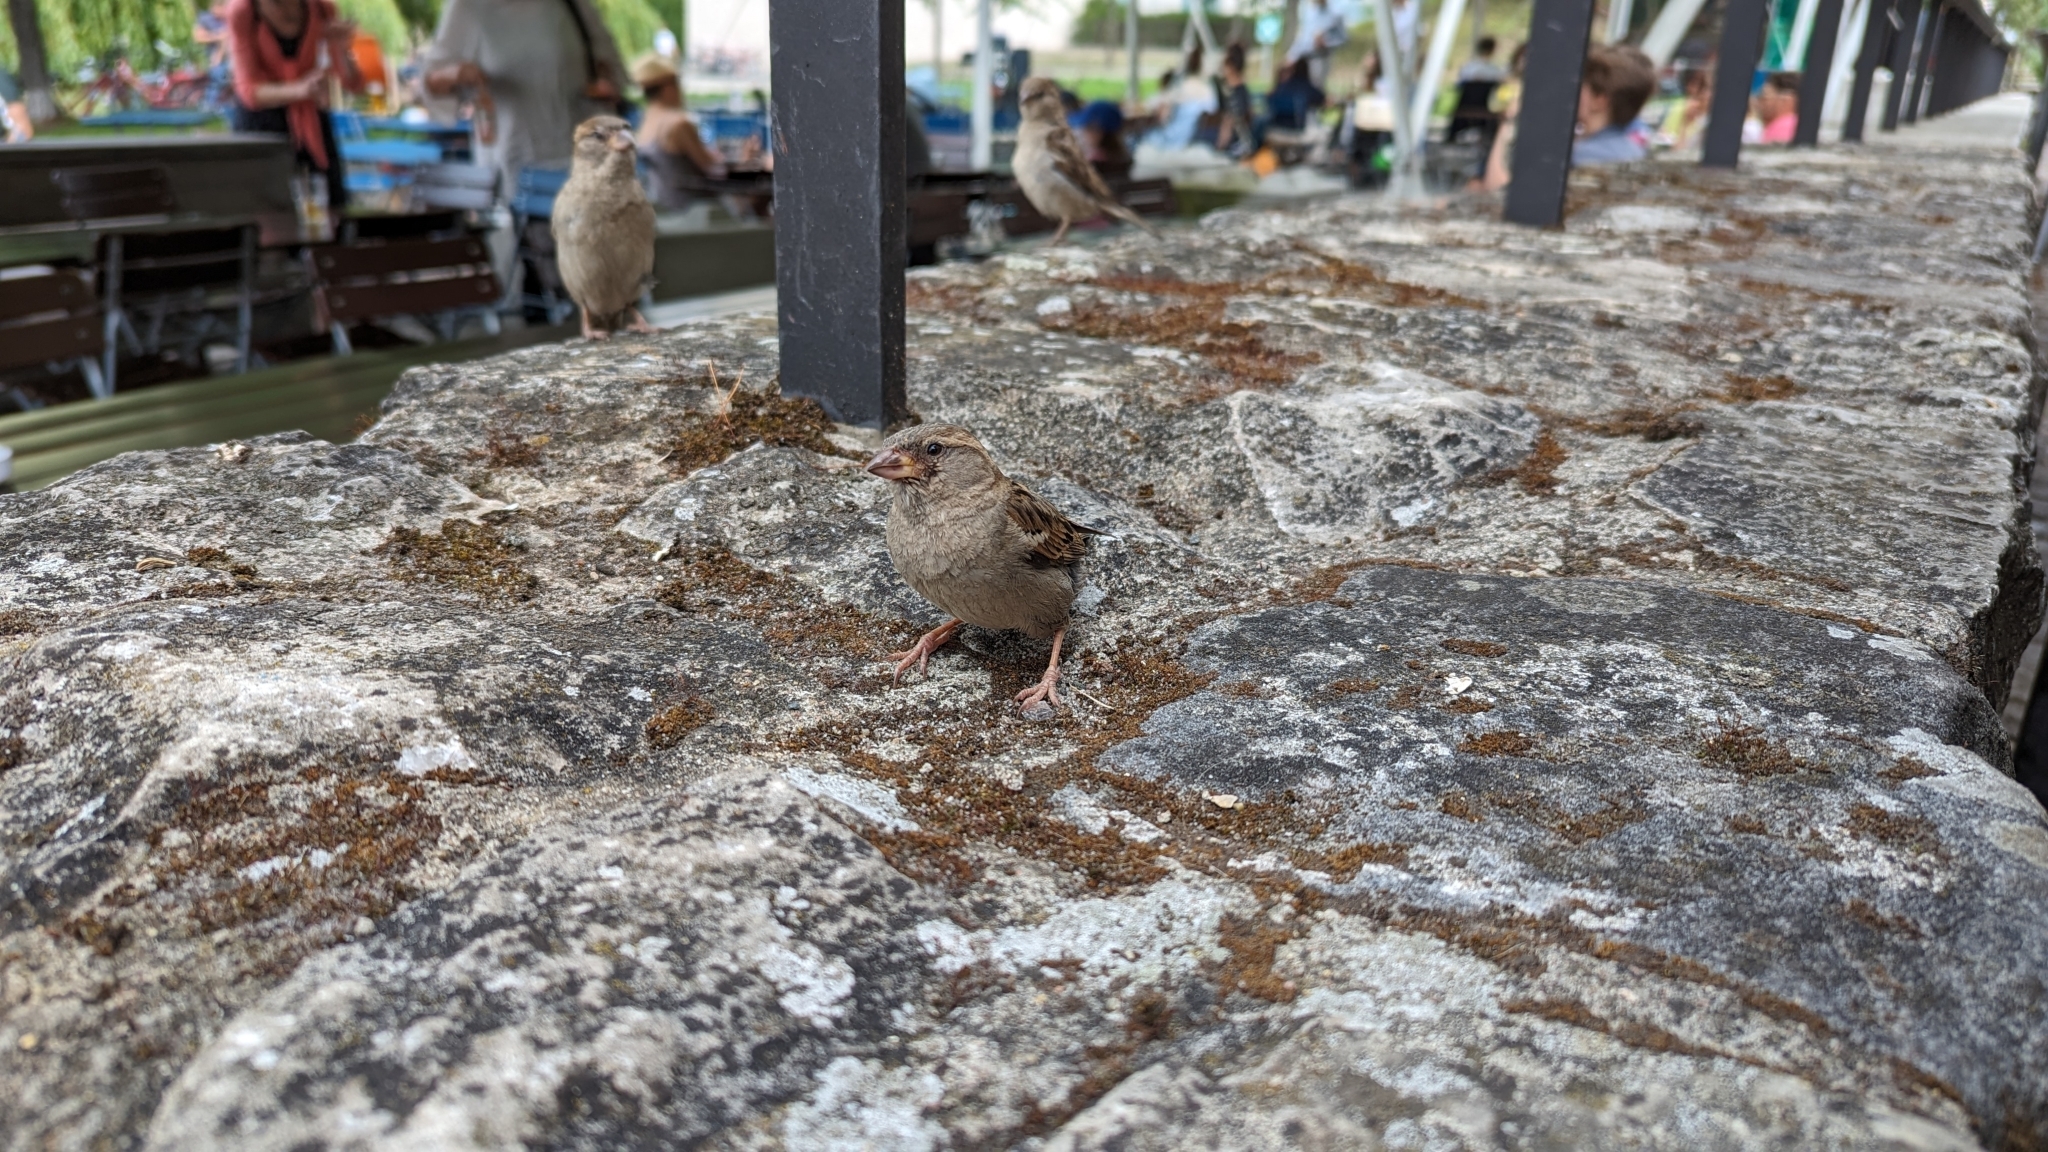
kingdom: Animalia
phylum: Chordata
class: Aves
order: Passeriformes
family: Passeridae
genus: Passer
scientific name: Passer domesticus
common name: House sparrow
